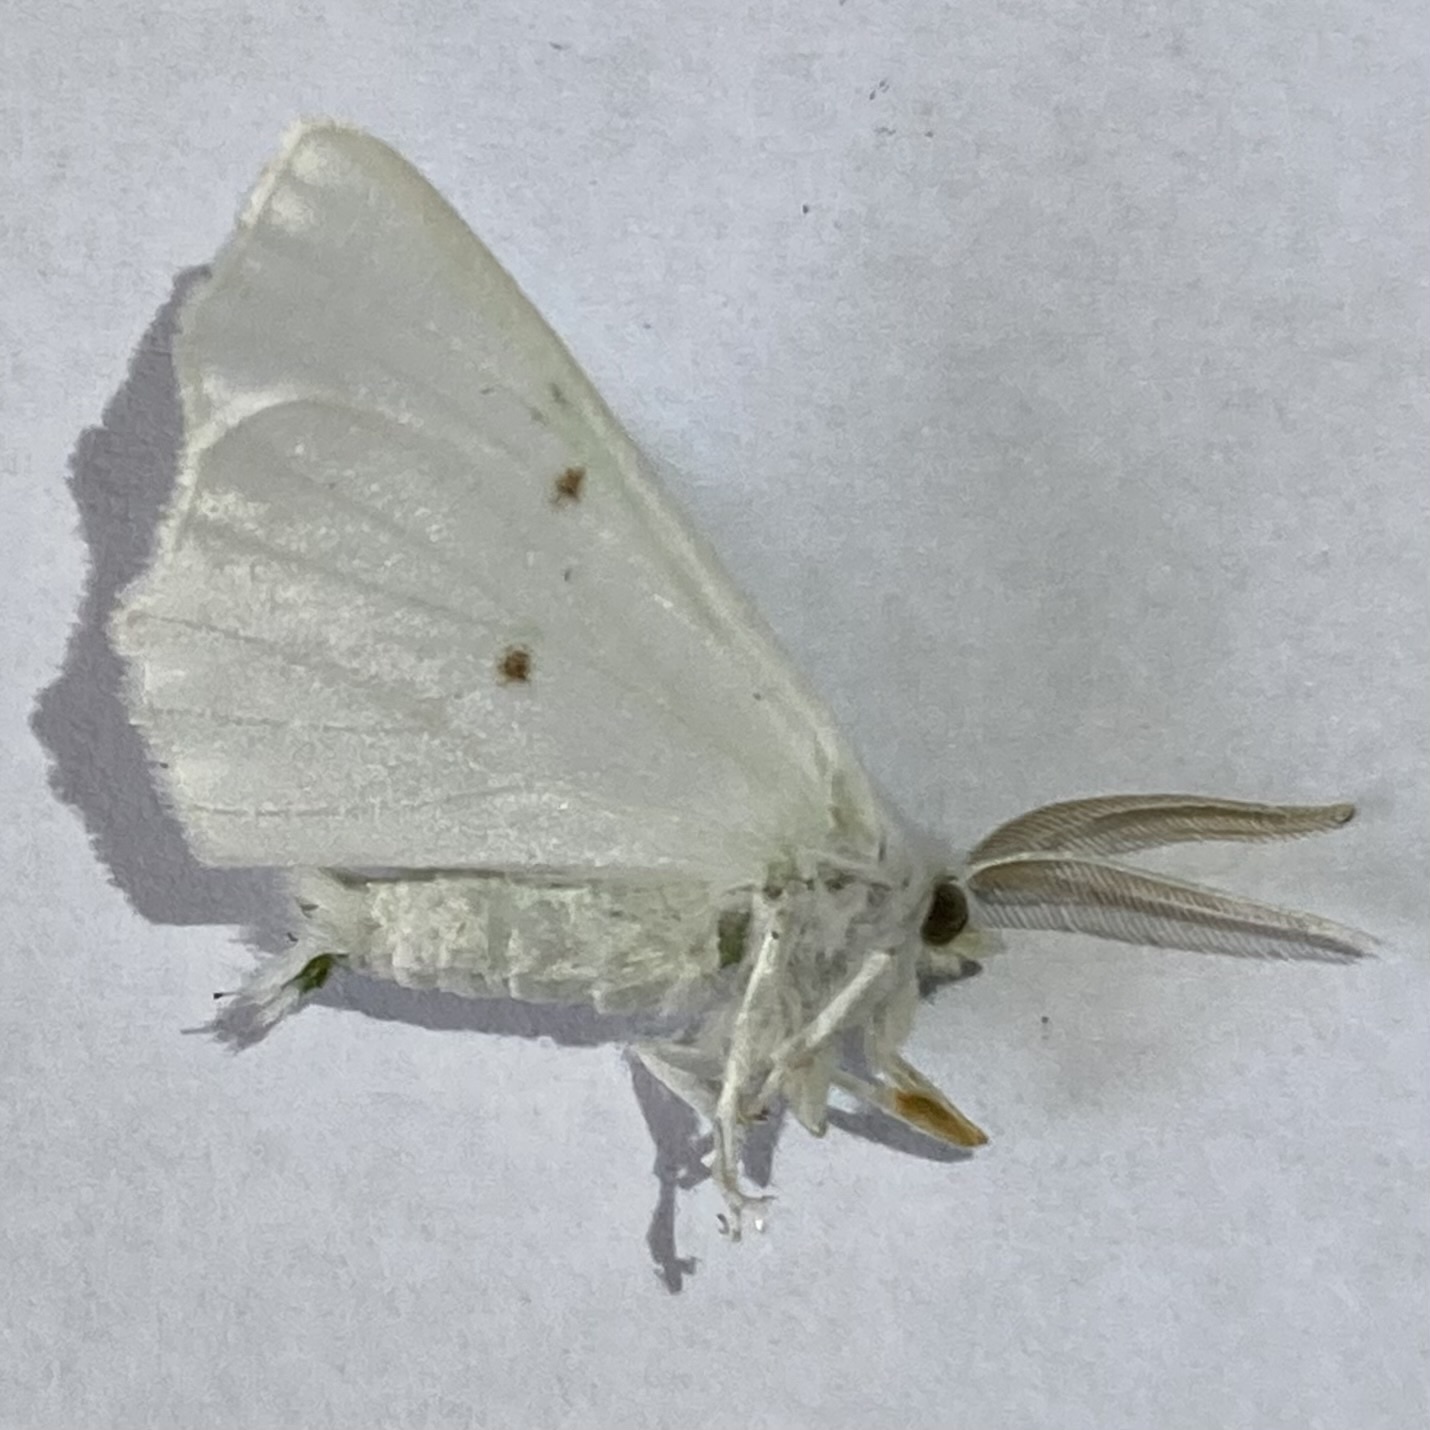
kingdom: Animalia
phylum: Arthropoda
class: Insecta
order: Lepidoptera
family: Geometridae
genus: Ennomos
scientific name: Ennomos subsignaria
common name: Elm spanworm
